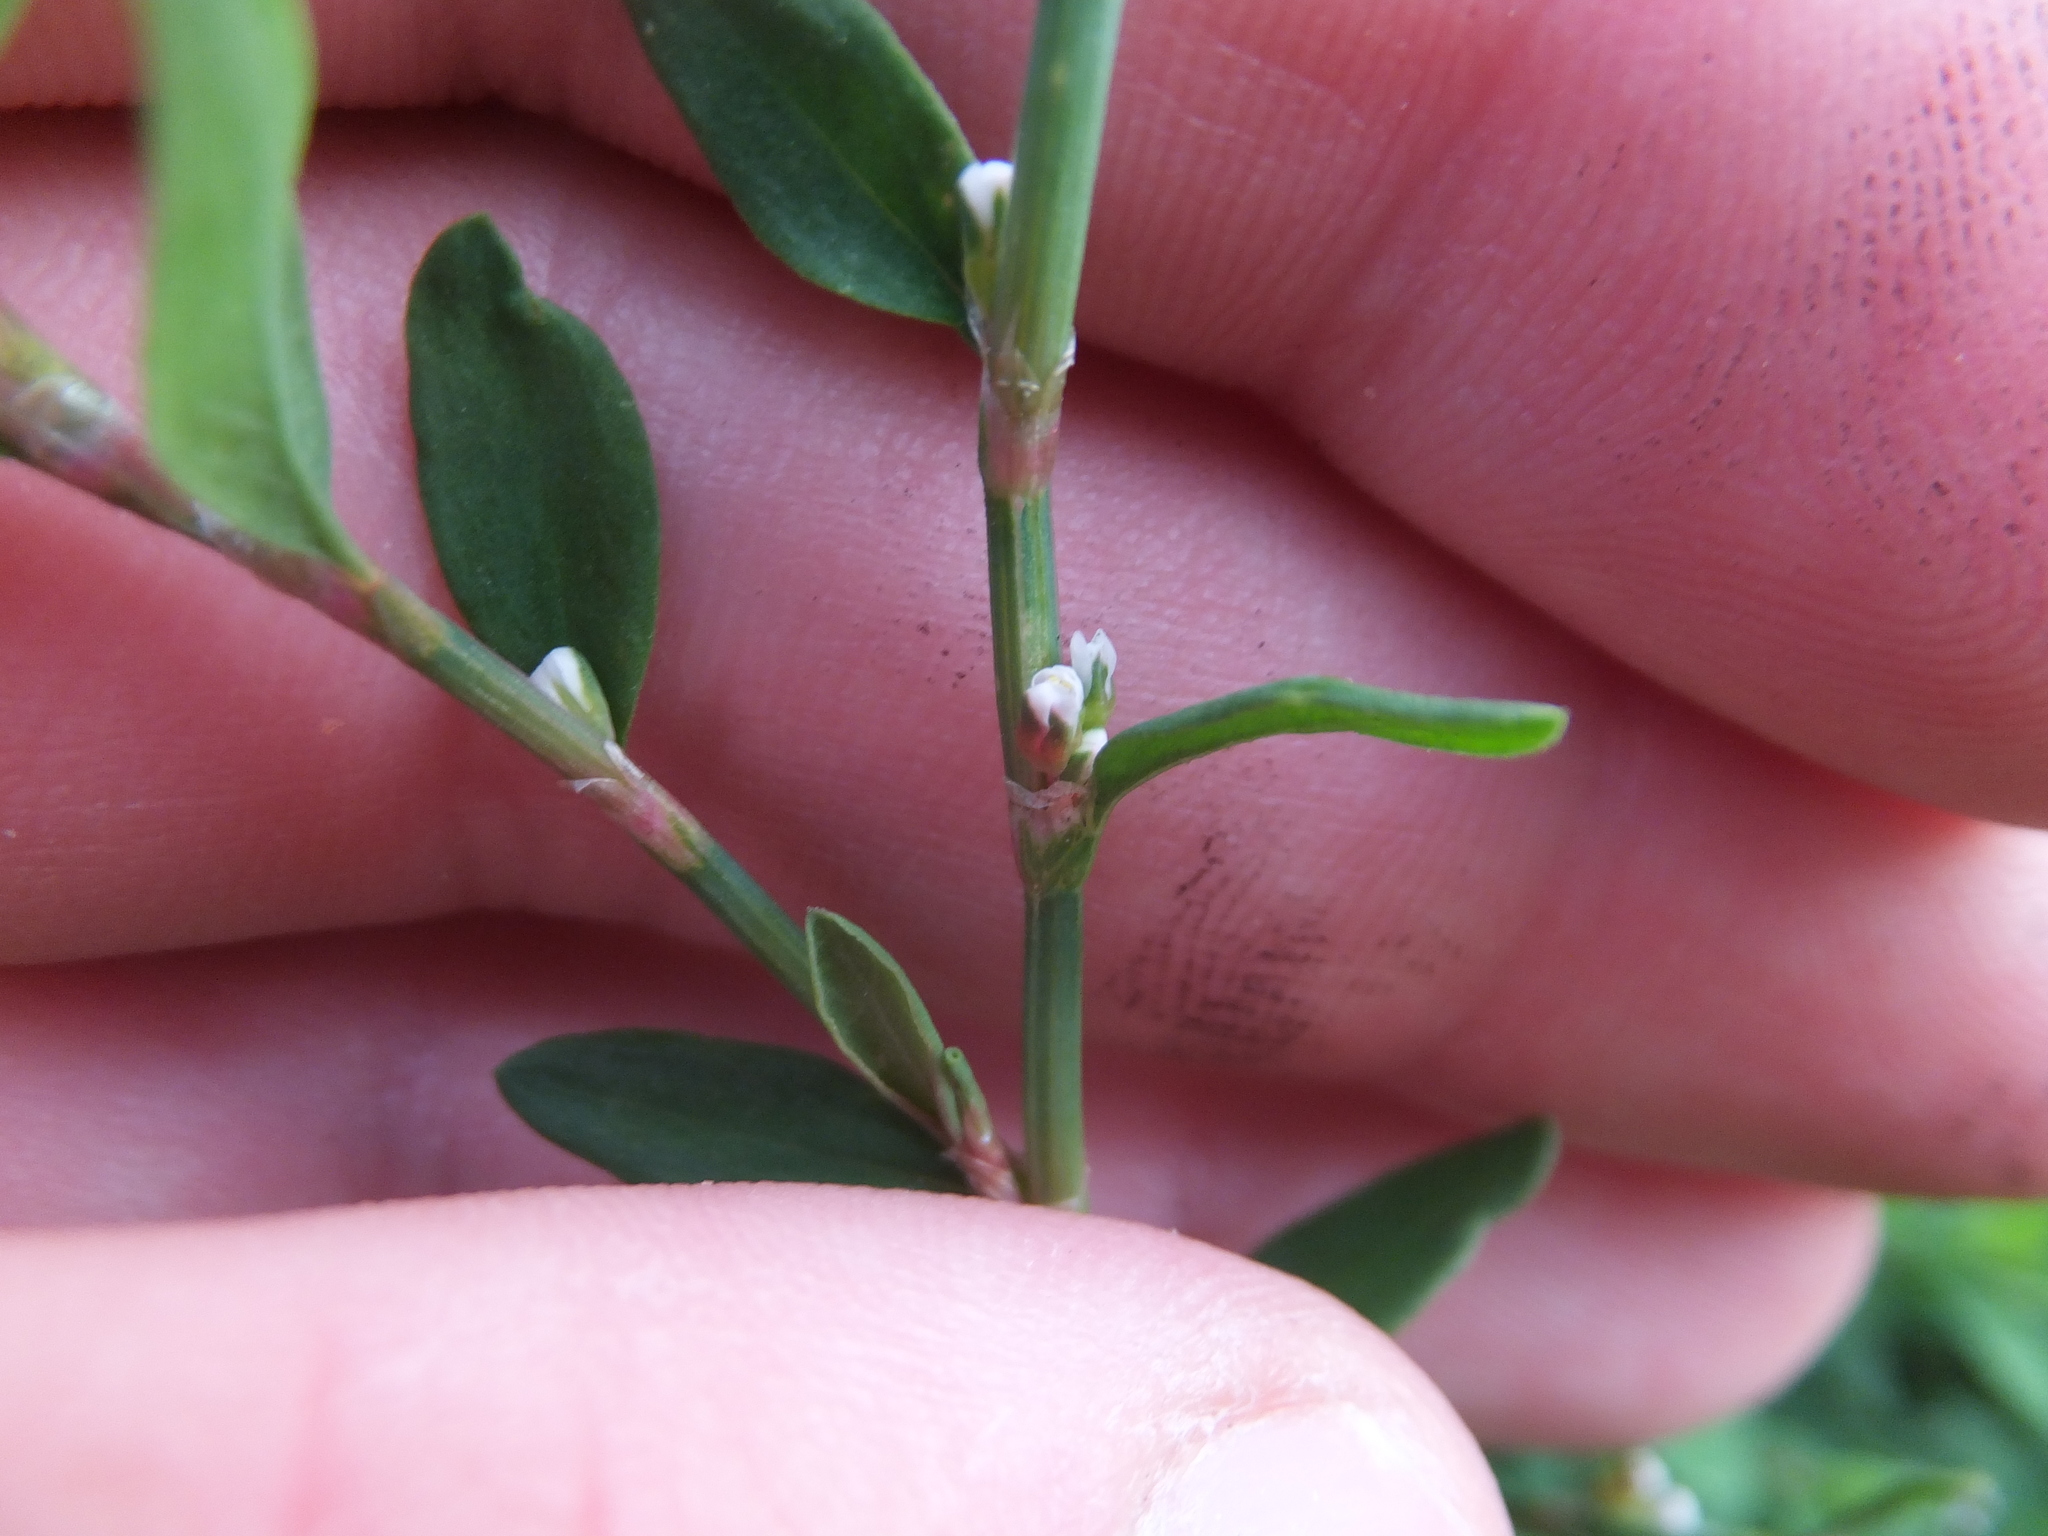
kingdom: Plantae
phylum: Tracheophyta
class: Magnoliopsida
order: Caryophyllales
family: Polygonaceae
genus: Polygonum
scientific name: Polygonum aviculare
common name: Prostrate knotweed
